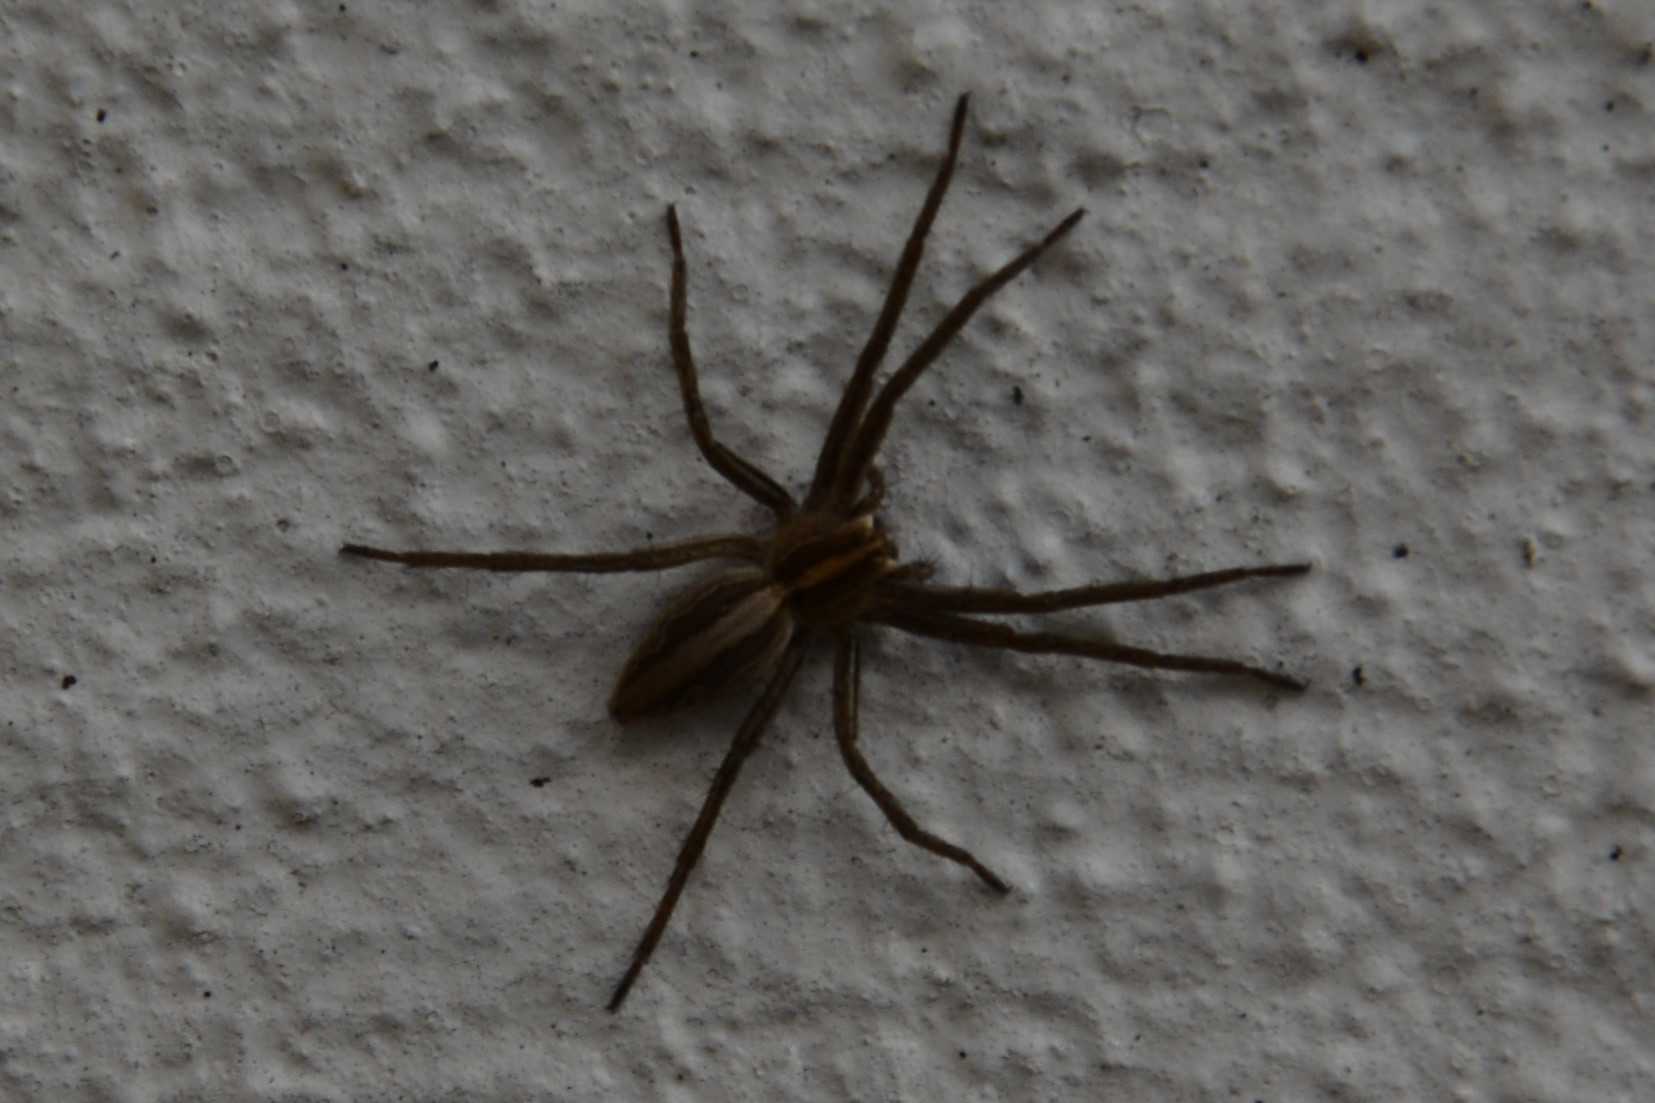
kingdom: Animalia
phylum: Arthropoda
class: Arachnida
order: Araneae
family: Pisauridae
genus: Pisaura
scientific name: Pisaura mirabilis
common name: Tent spider
